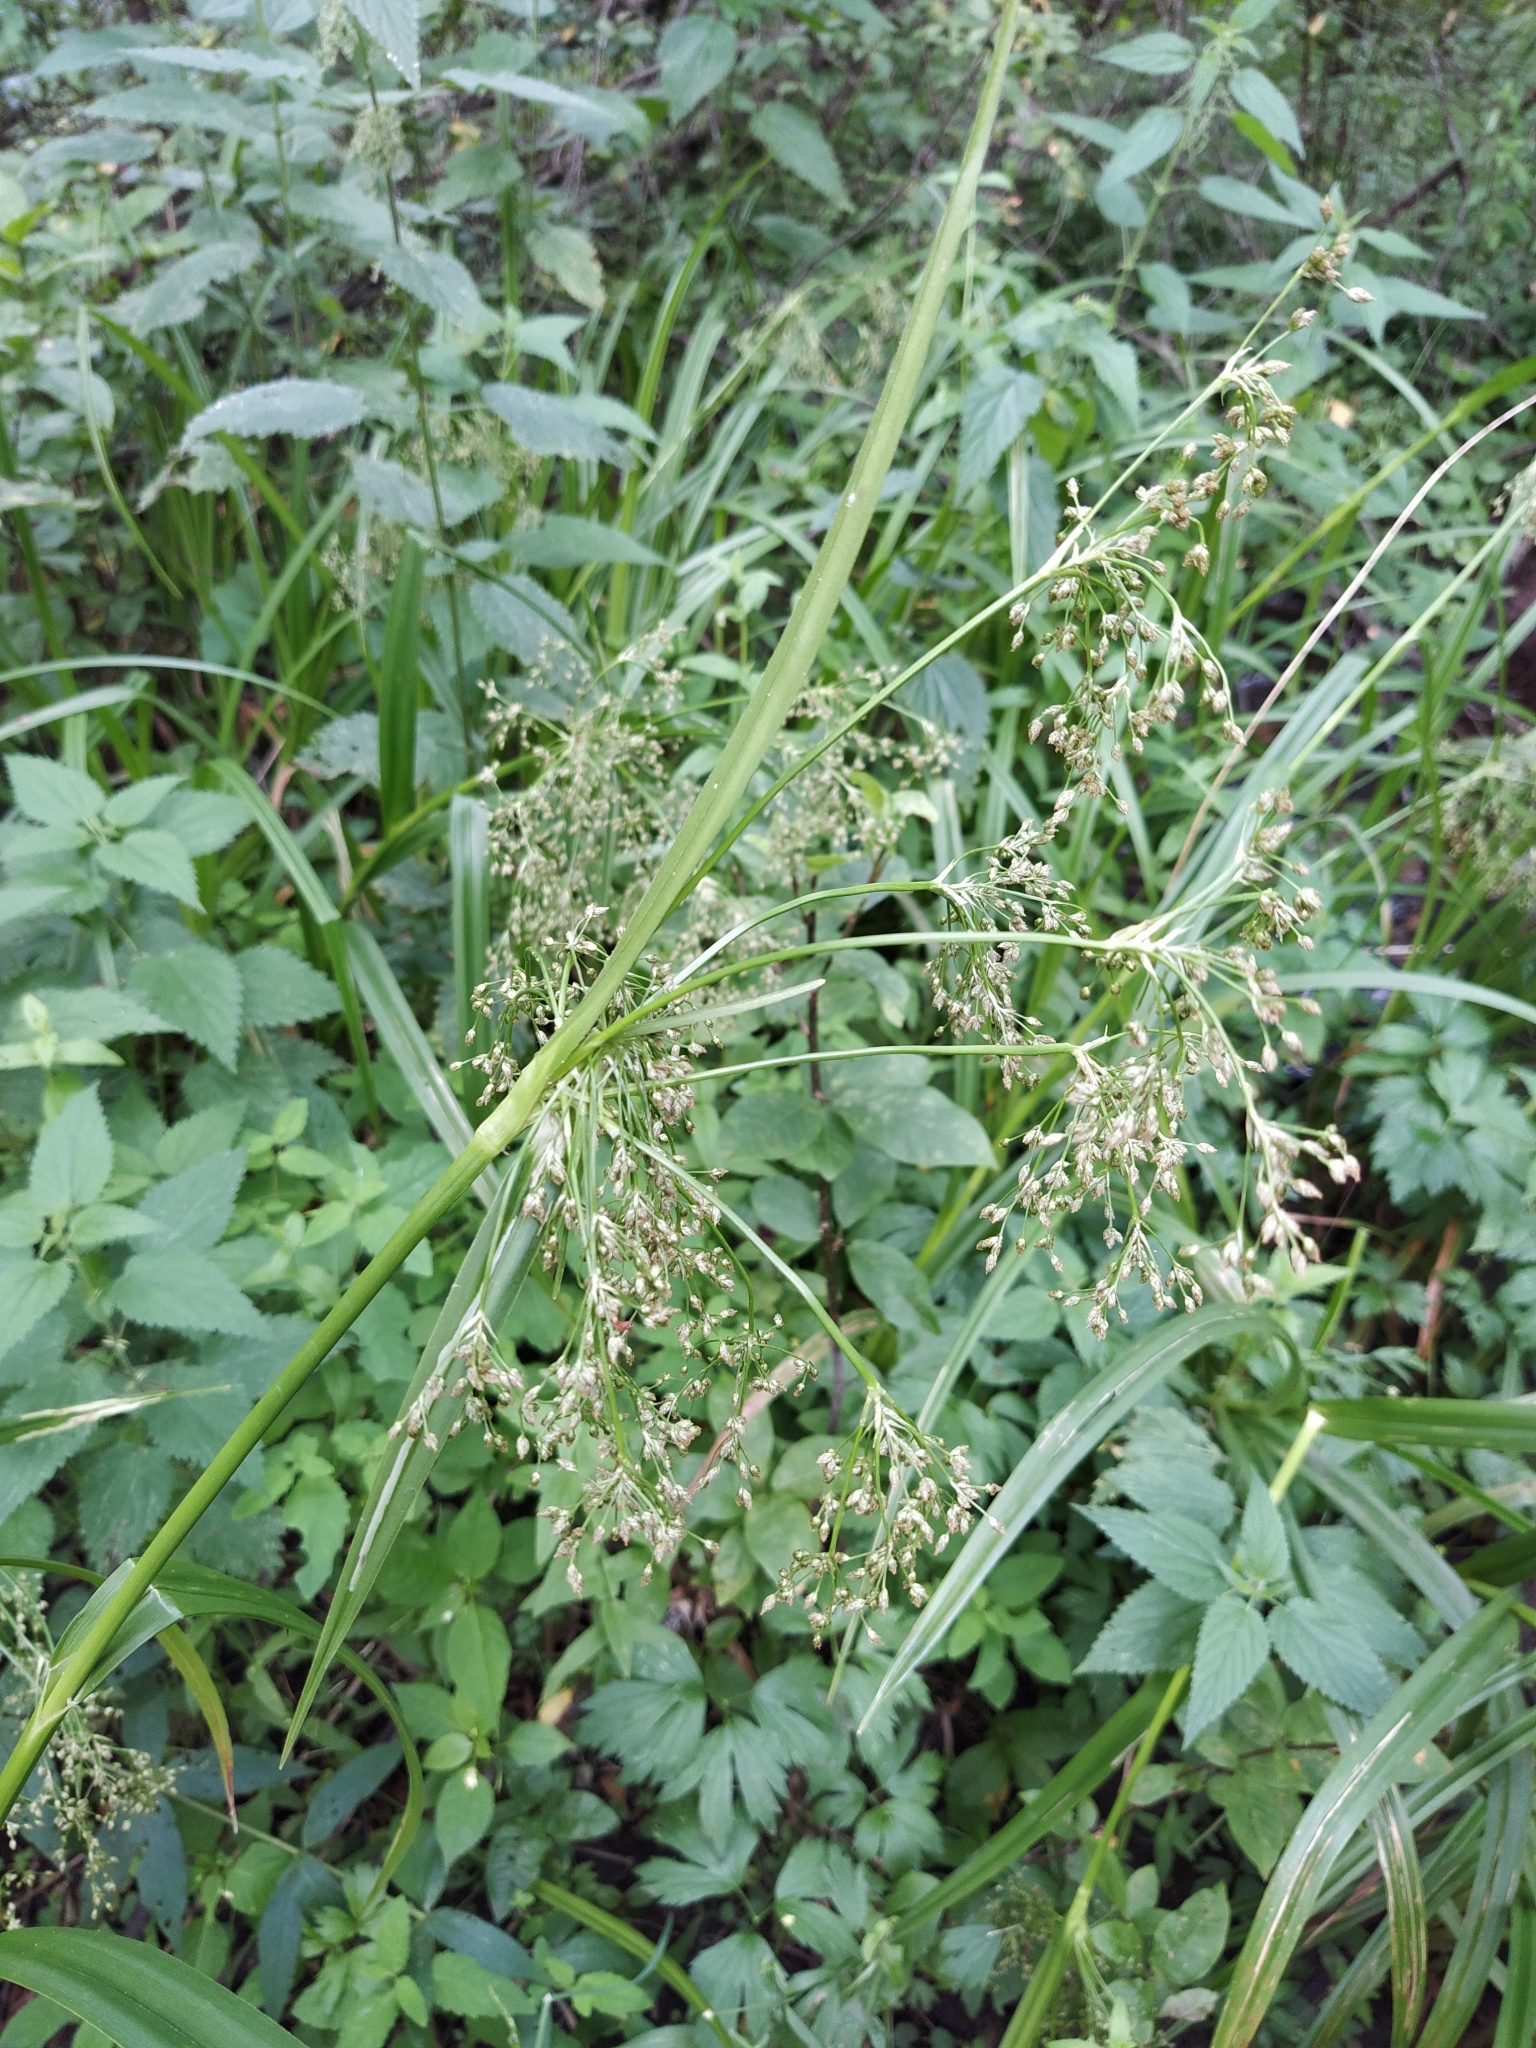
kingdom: Plantae
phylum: Tracheophyta
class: Liliopsida
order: Poales
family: Cyperaceae
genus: Scirpus
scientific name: Scirpus sylvaticus
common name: Wood club-rush
